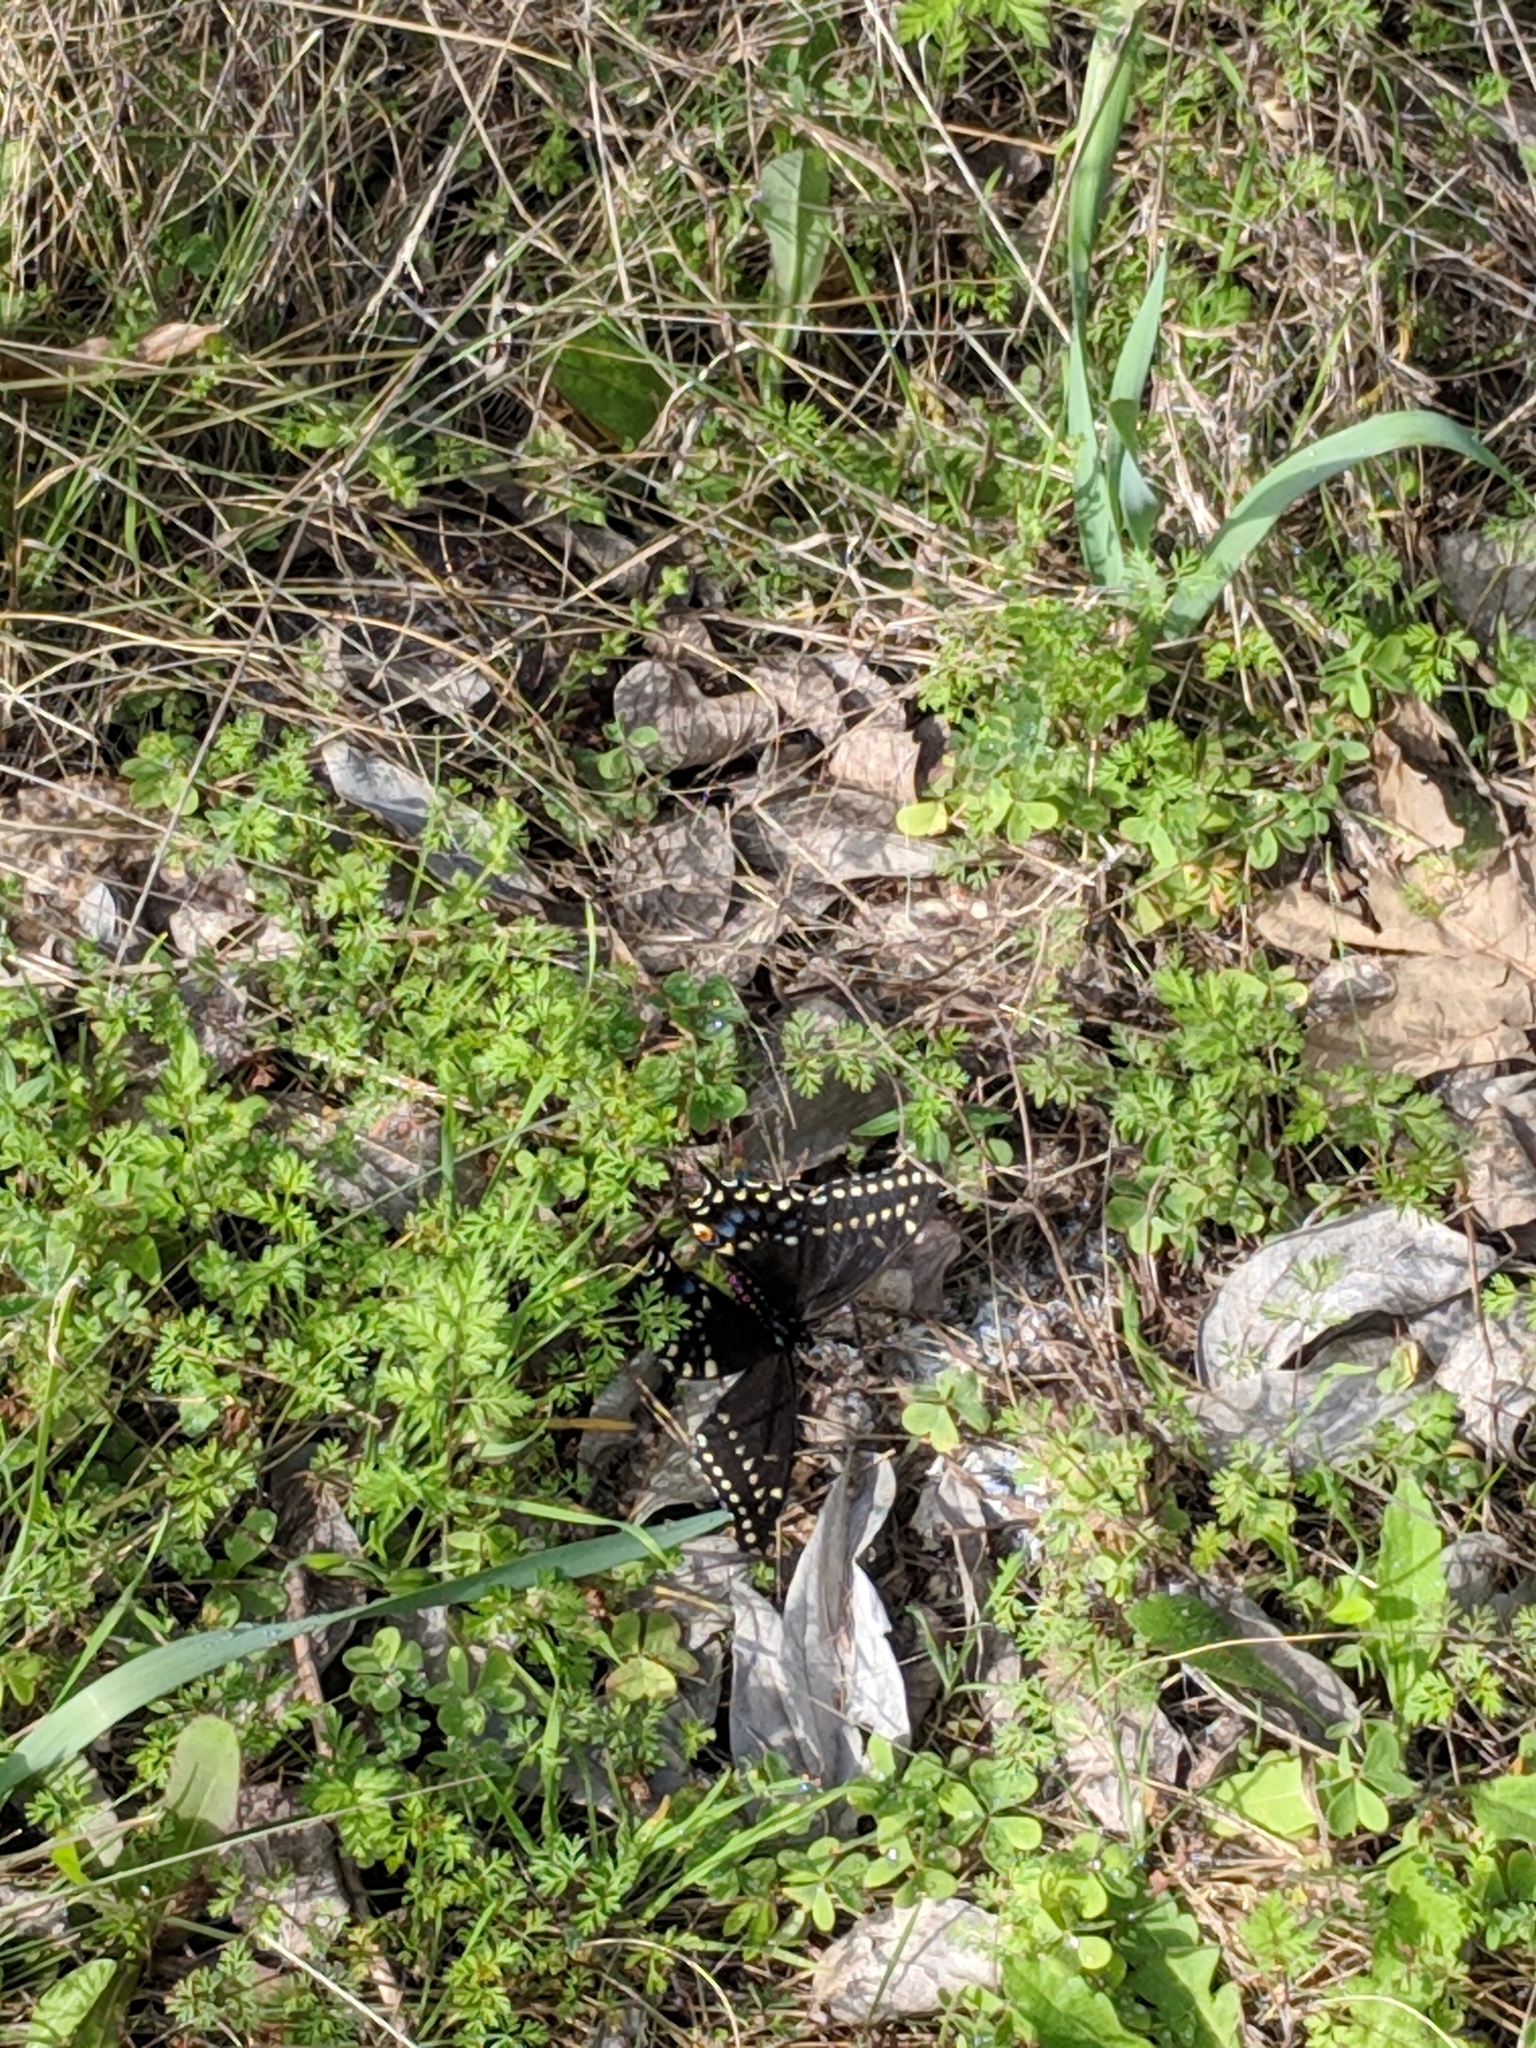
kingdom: Animalia
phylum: Arthropoda
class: Insecta
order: Lepidoptera
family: Papilionidae
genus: Papilio
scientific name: Papilio polyxenes
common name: Black swallowtail
